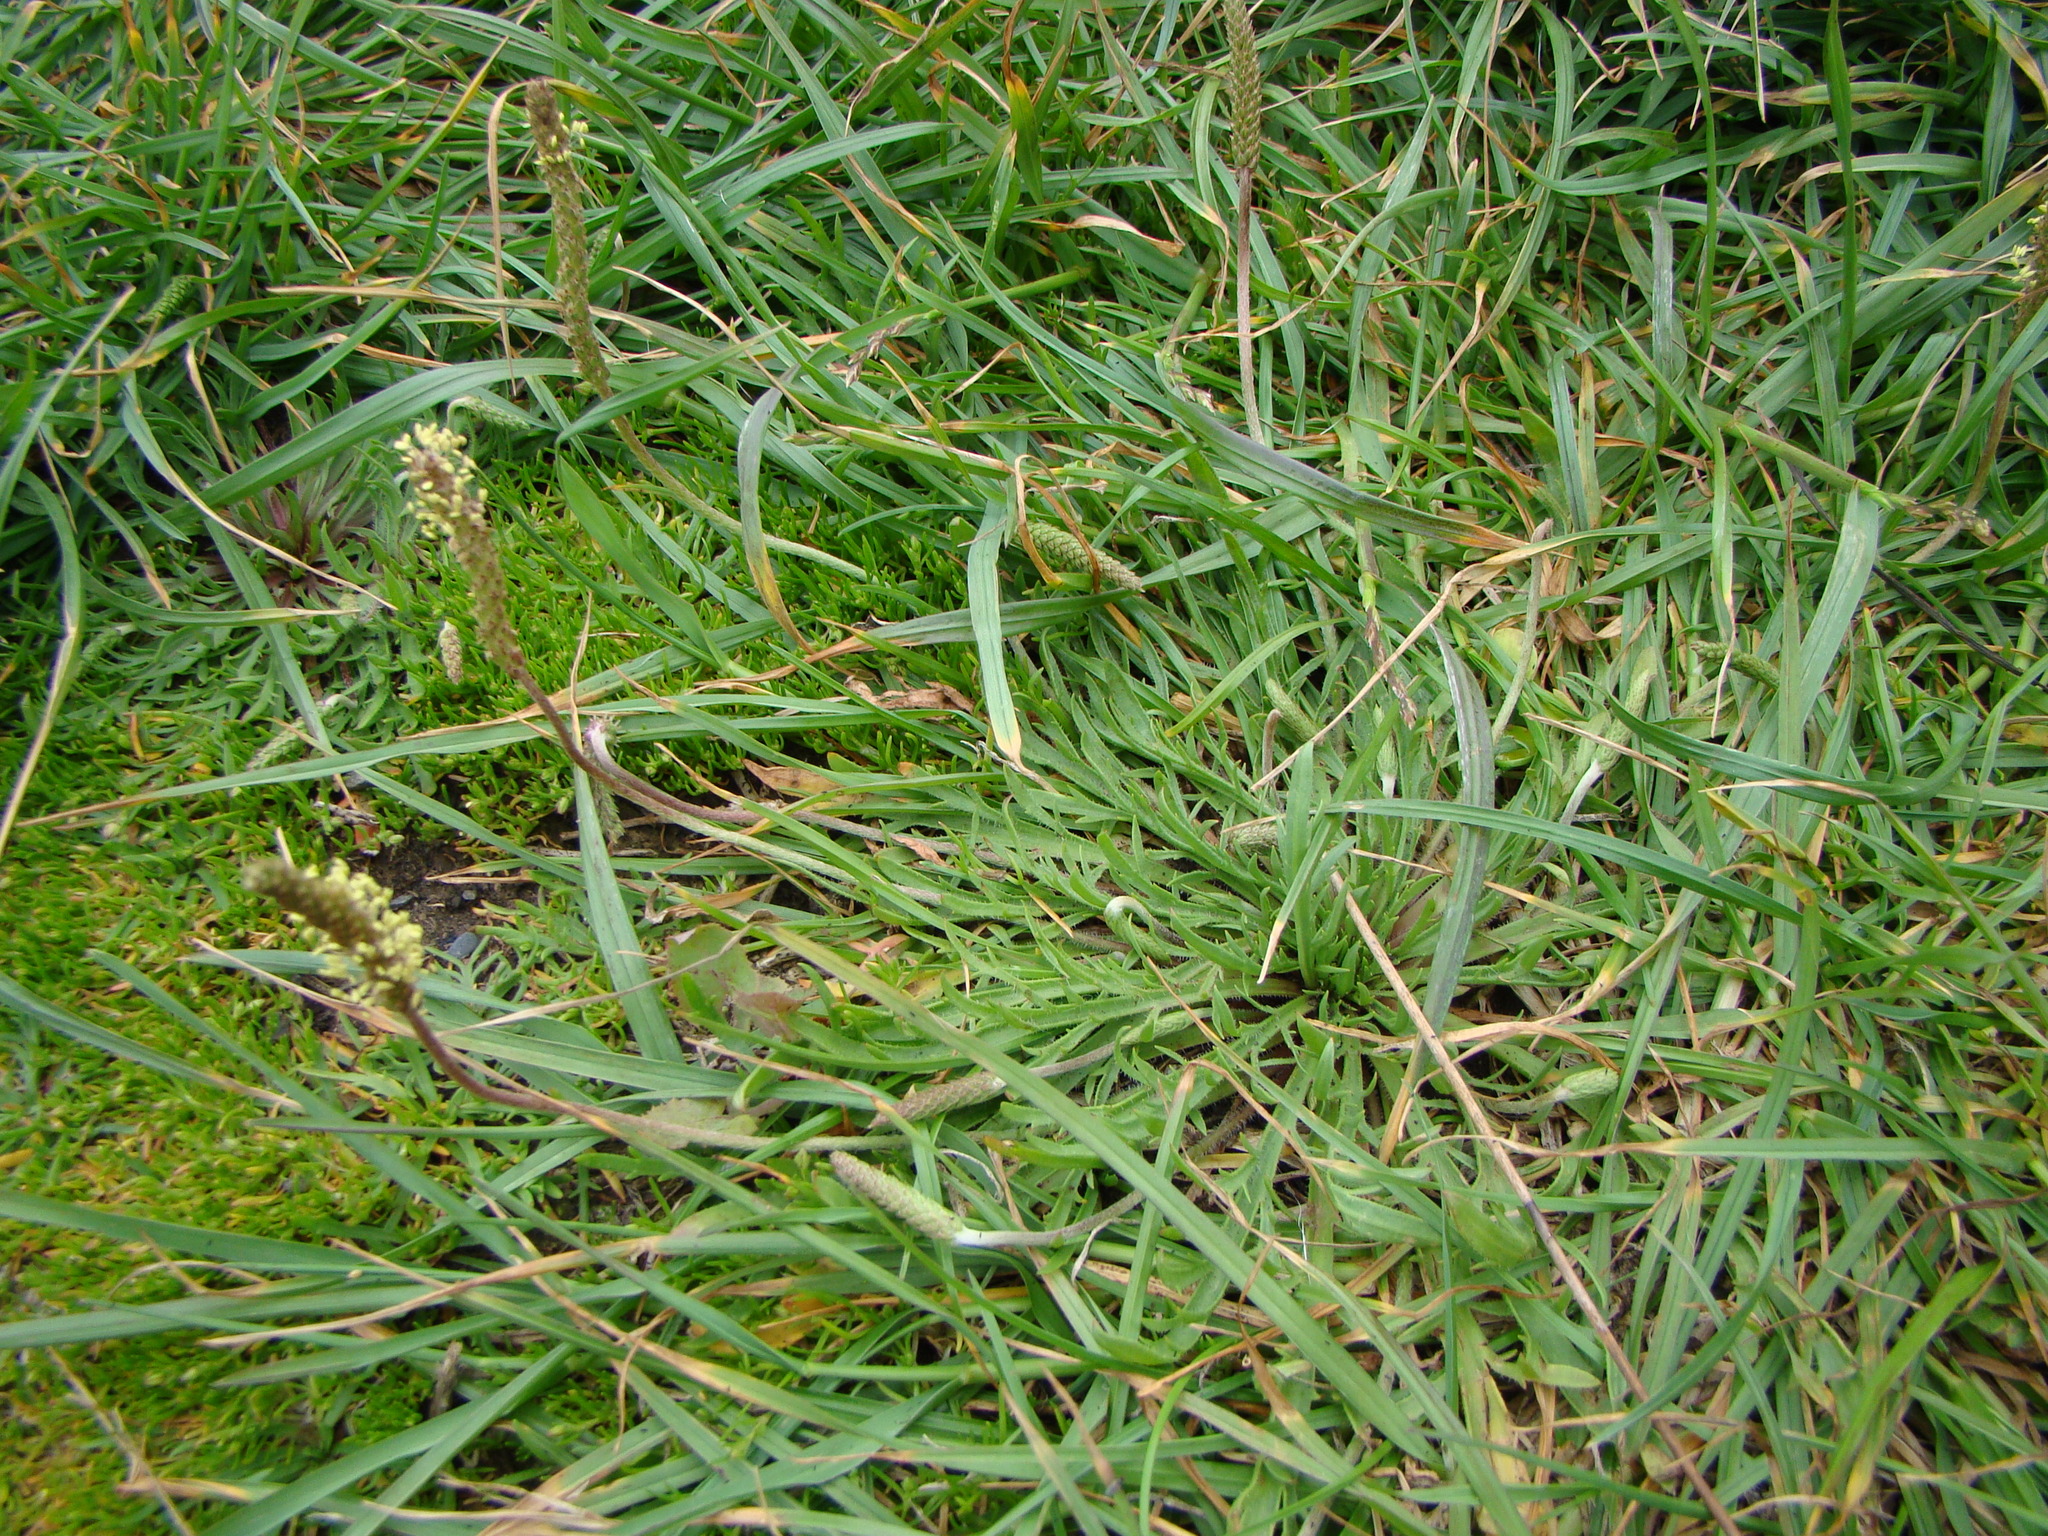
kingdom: Plantae
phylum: Tracheophyta
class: Magnoliopsida
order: Lamiales
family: Plantaginaceae
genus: Plantago
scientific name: Plantago coronopus
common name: Buck's-horn plantain
